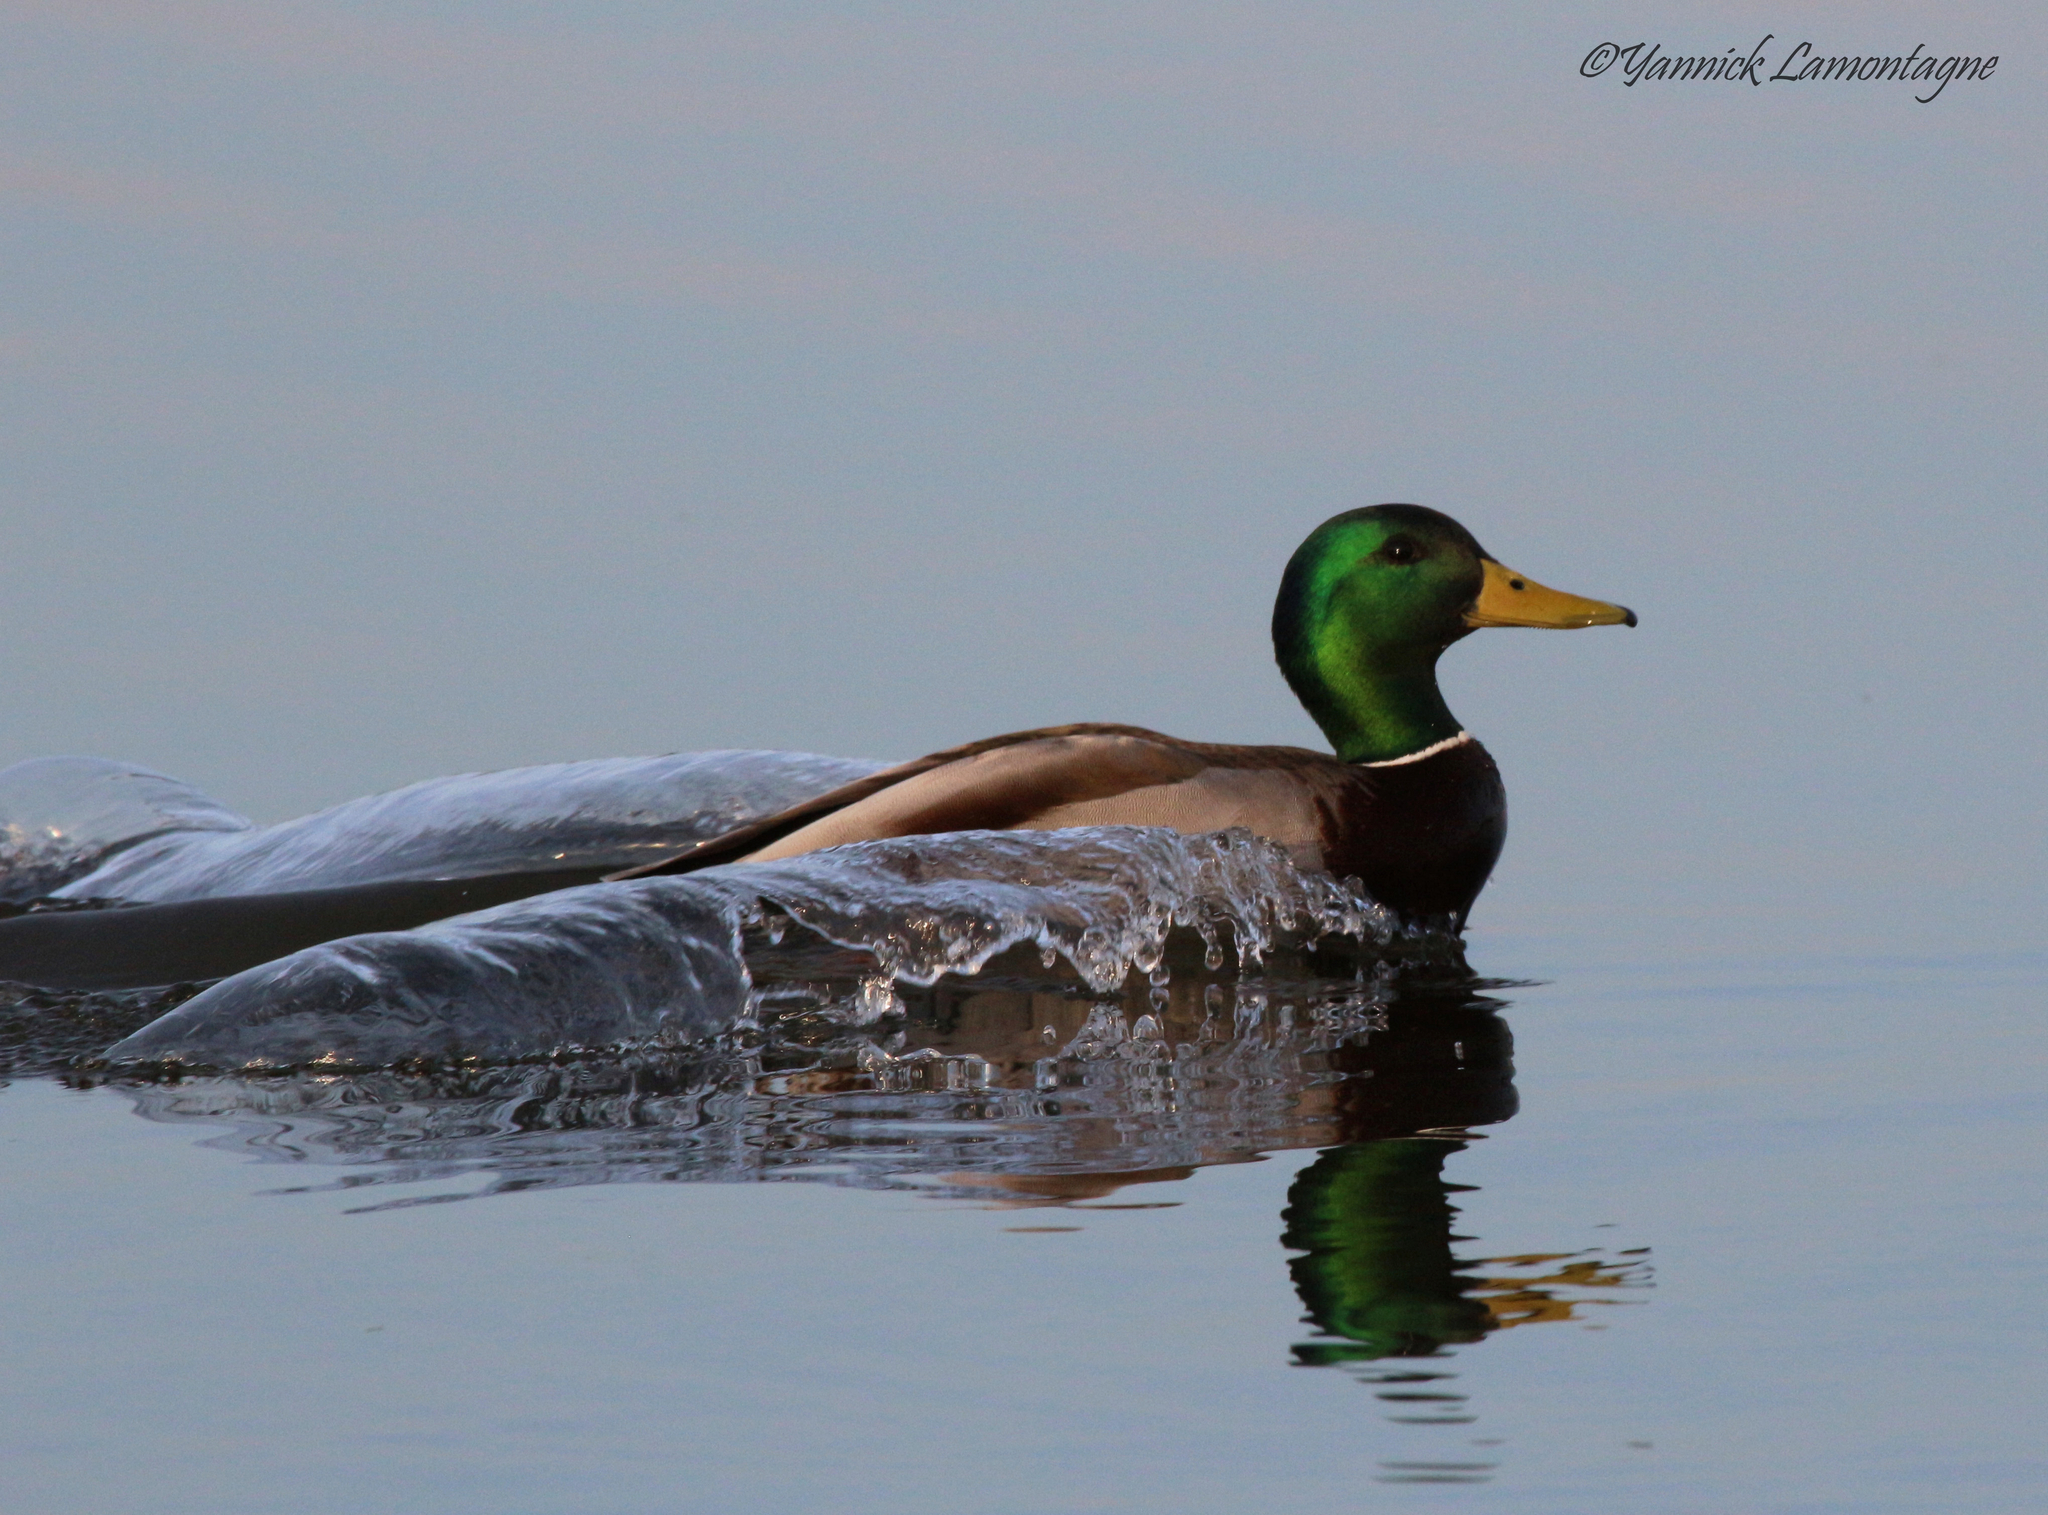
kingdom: Animalia
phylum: Chordata
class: Aves
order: Anseriformes
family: Anatidae
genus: Anas
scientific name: Anas platyrhynchos
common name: Mallard
